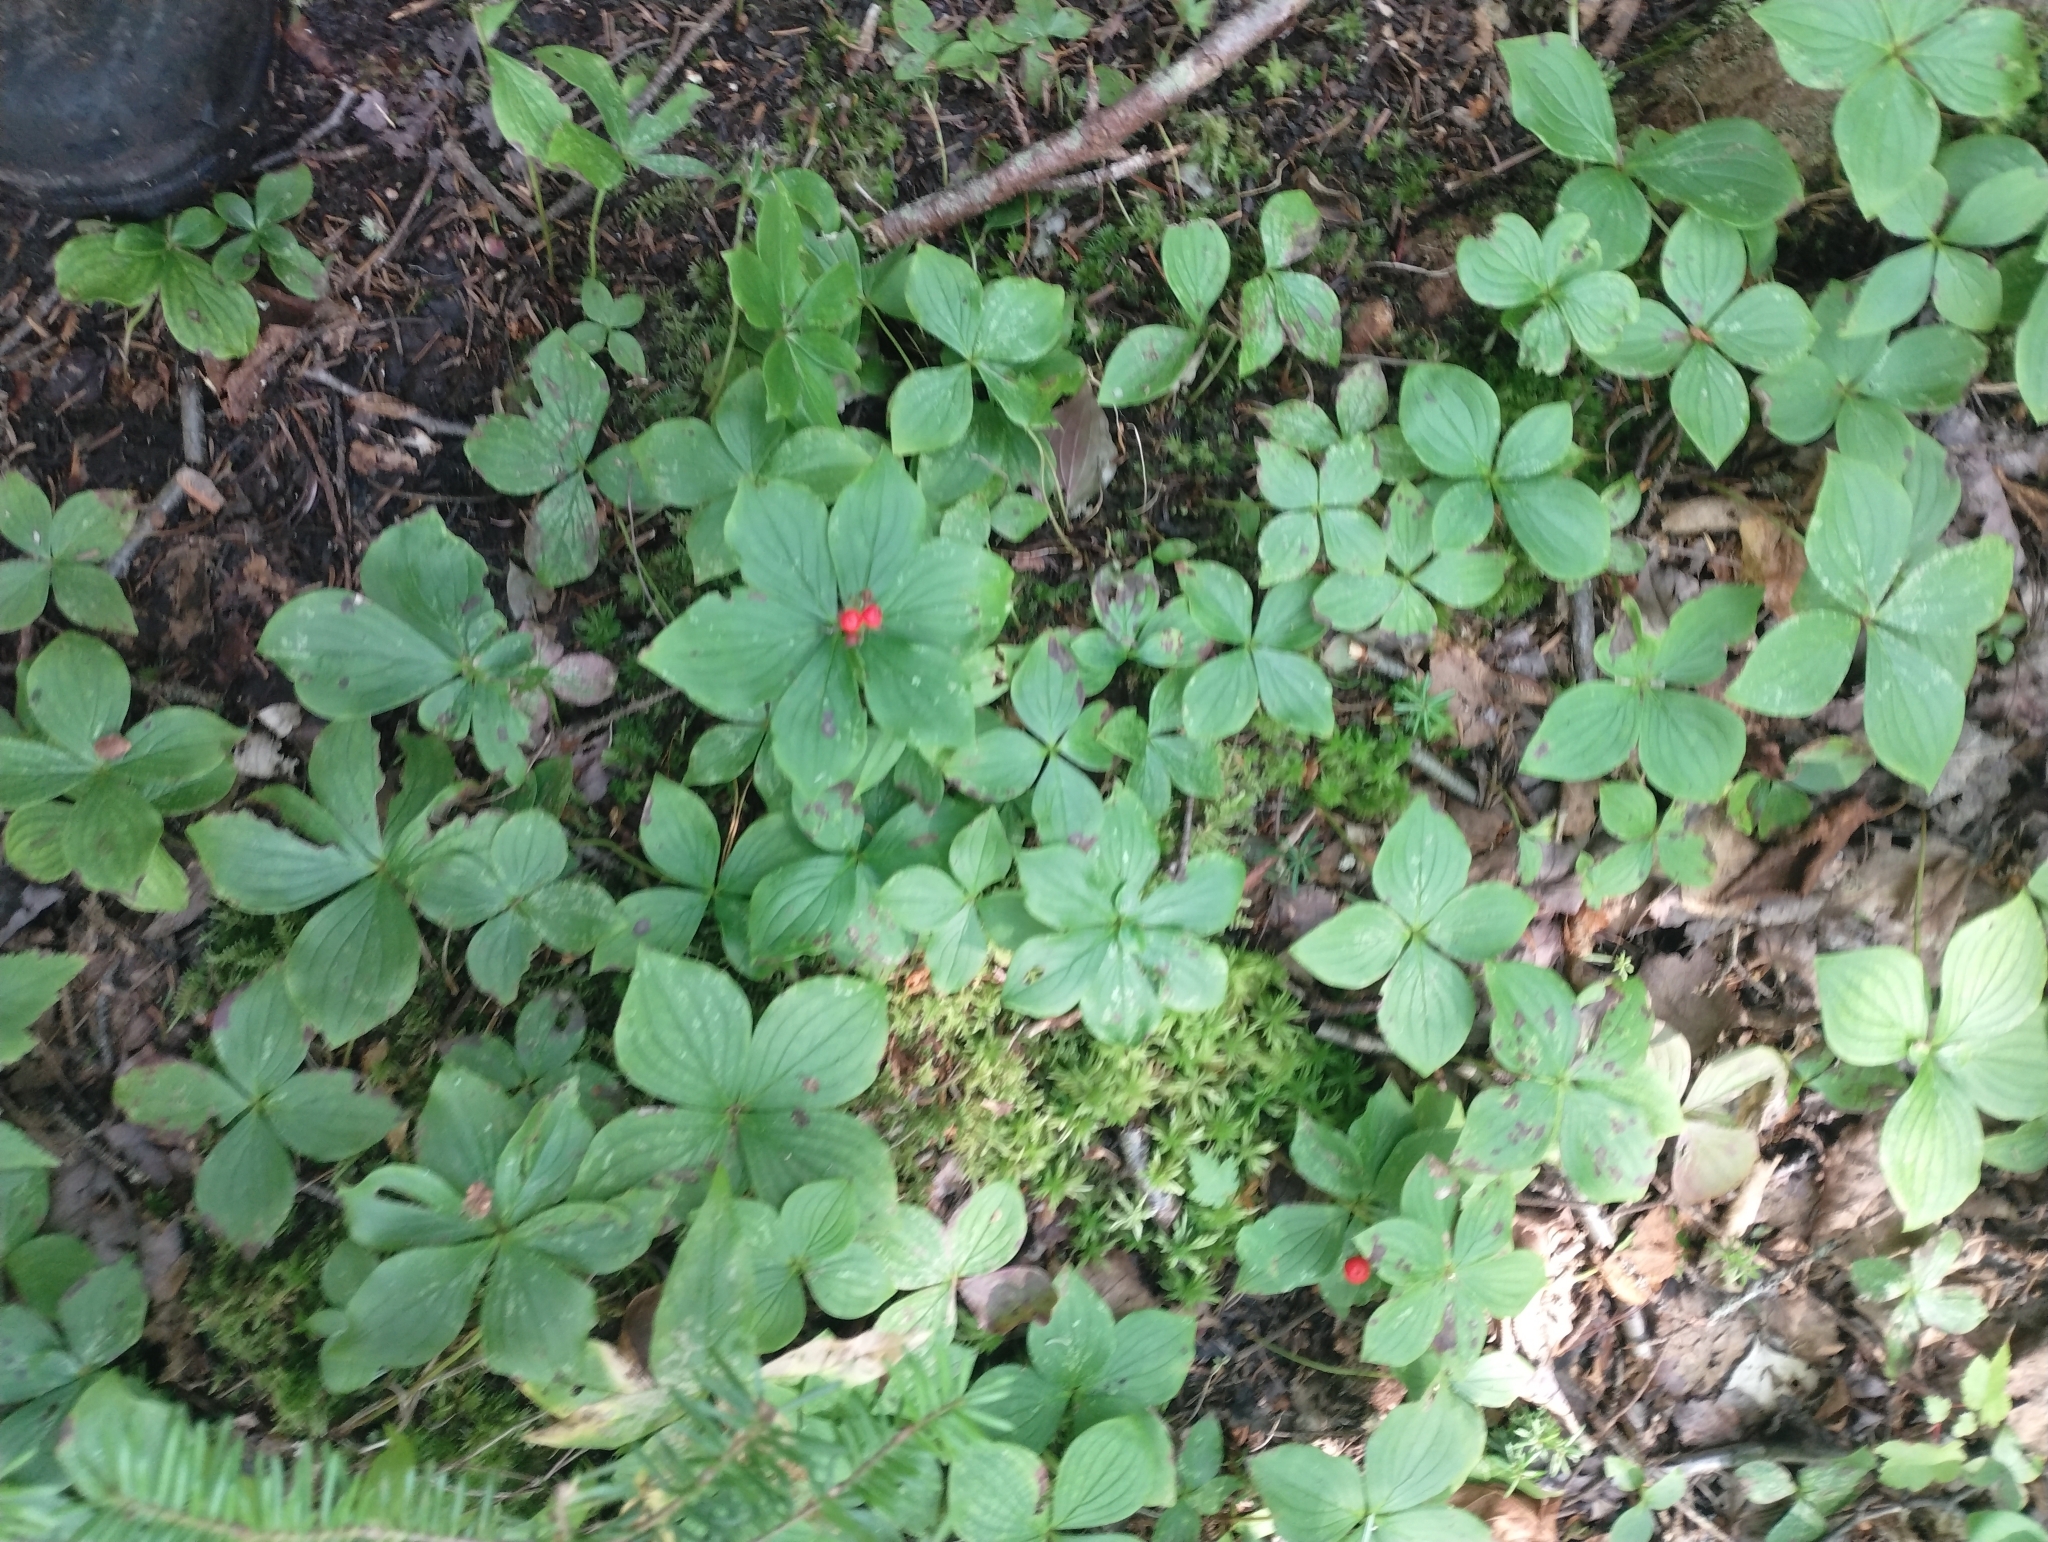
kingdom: Plantae
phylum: Tracheophyta
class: Magnoliopsida
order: Cornales
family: Cornaceae
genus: Cornus
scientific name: Cornus canadensis
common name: Creeping dogwood
